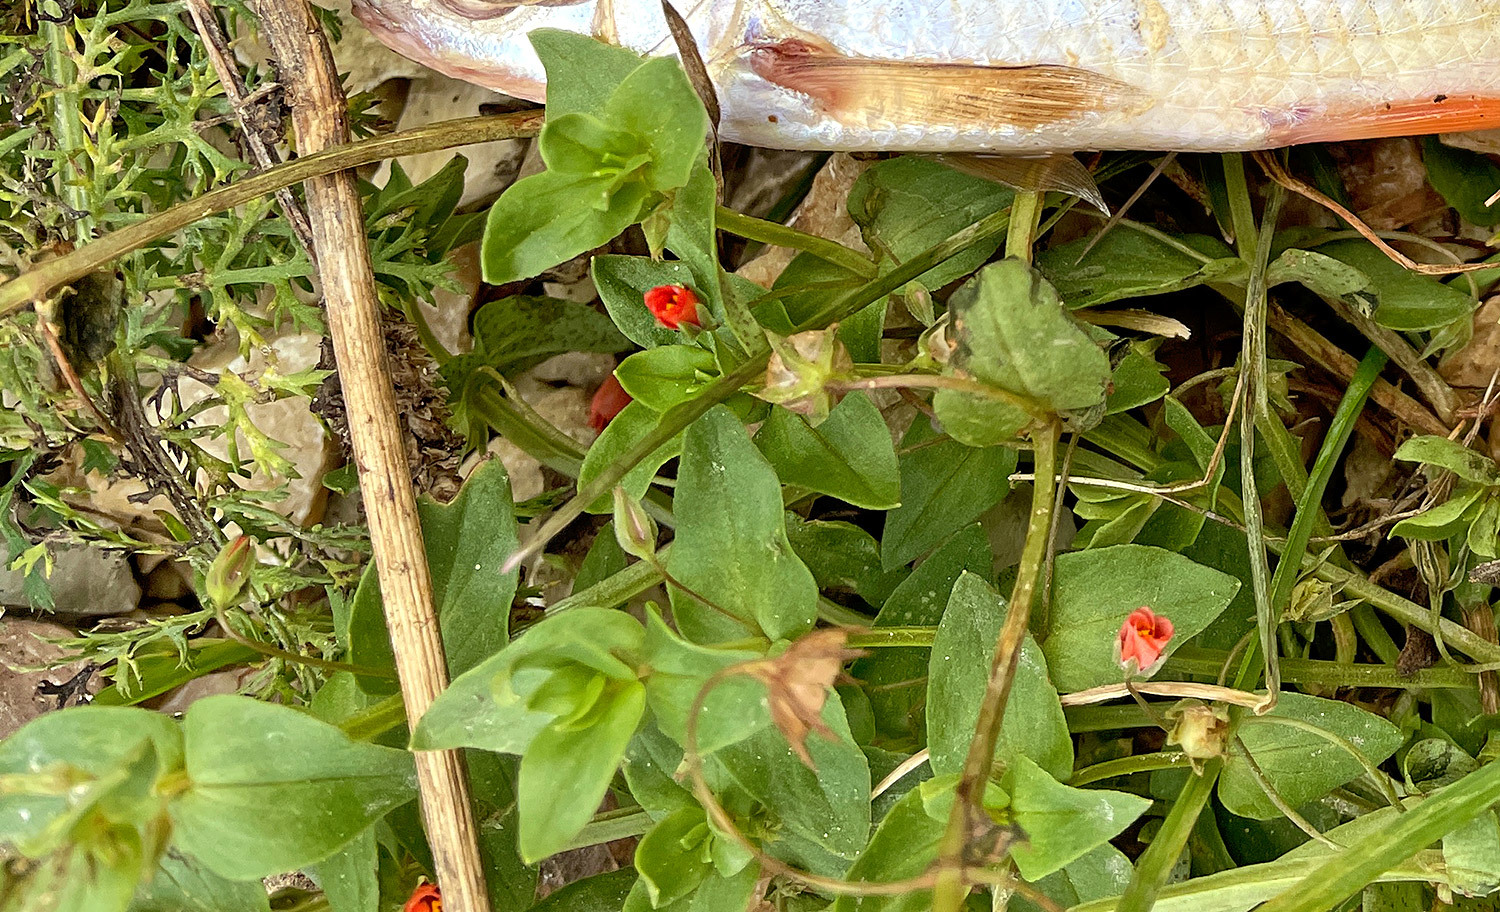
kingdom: Plantae
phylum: Tracheophyta
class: Magnoliopsida
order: Ericales
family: Primulaceae
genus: Lysimachia
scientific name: Lysimachia arvensis
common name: Scarlet pimpernel
